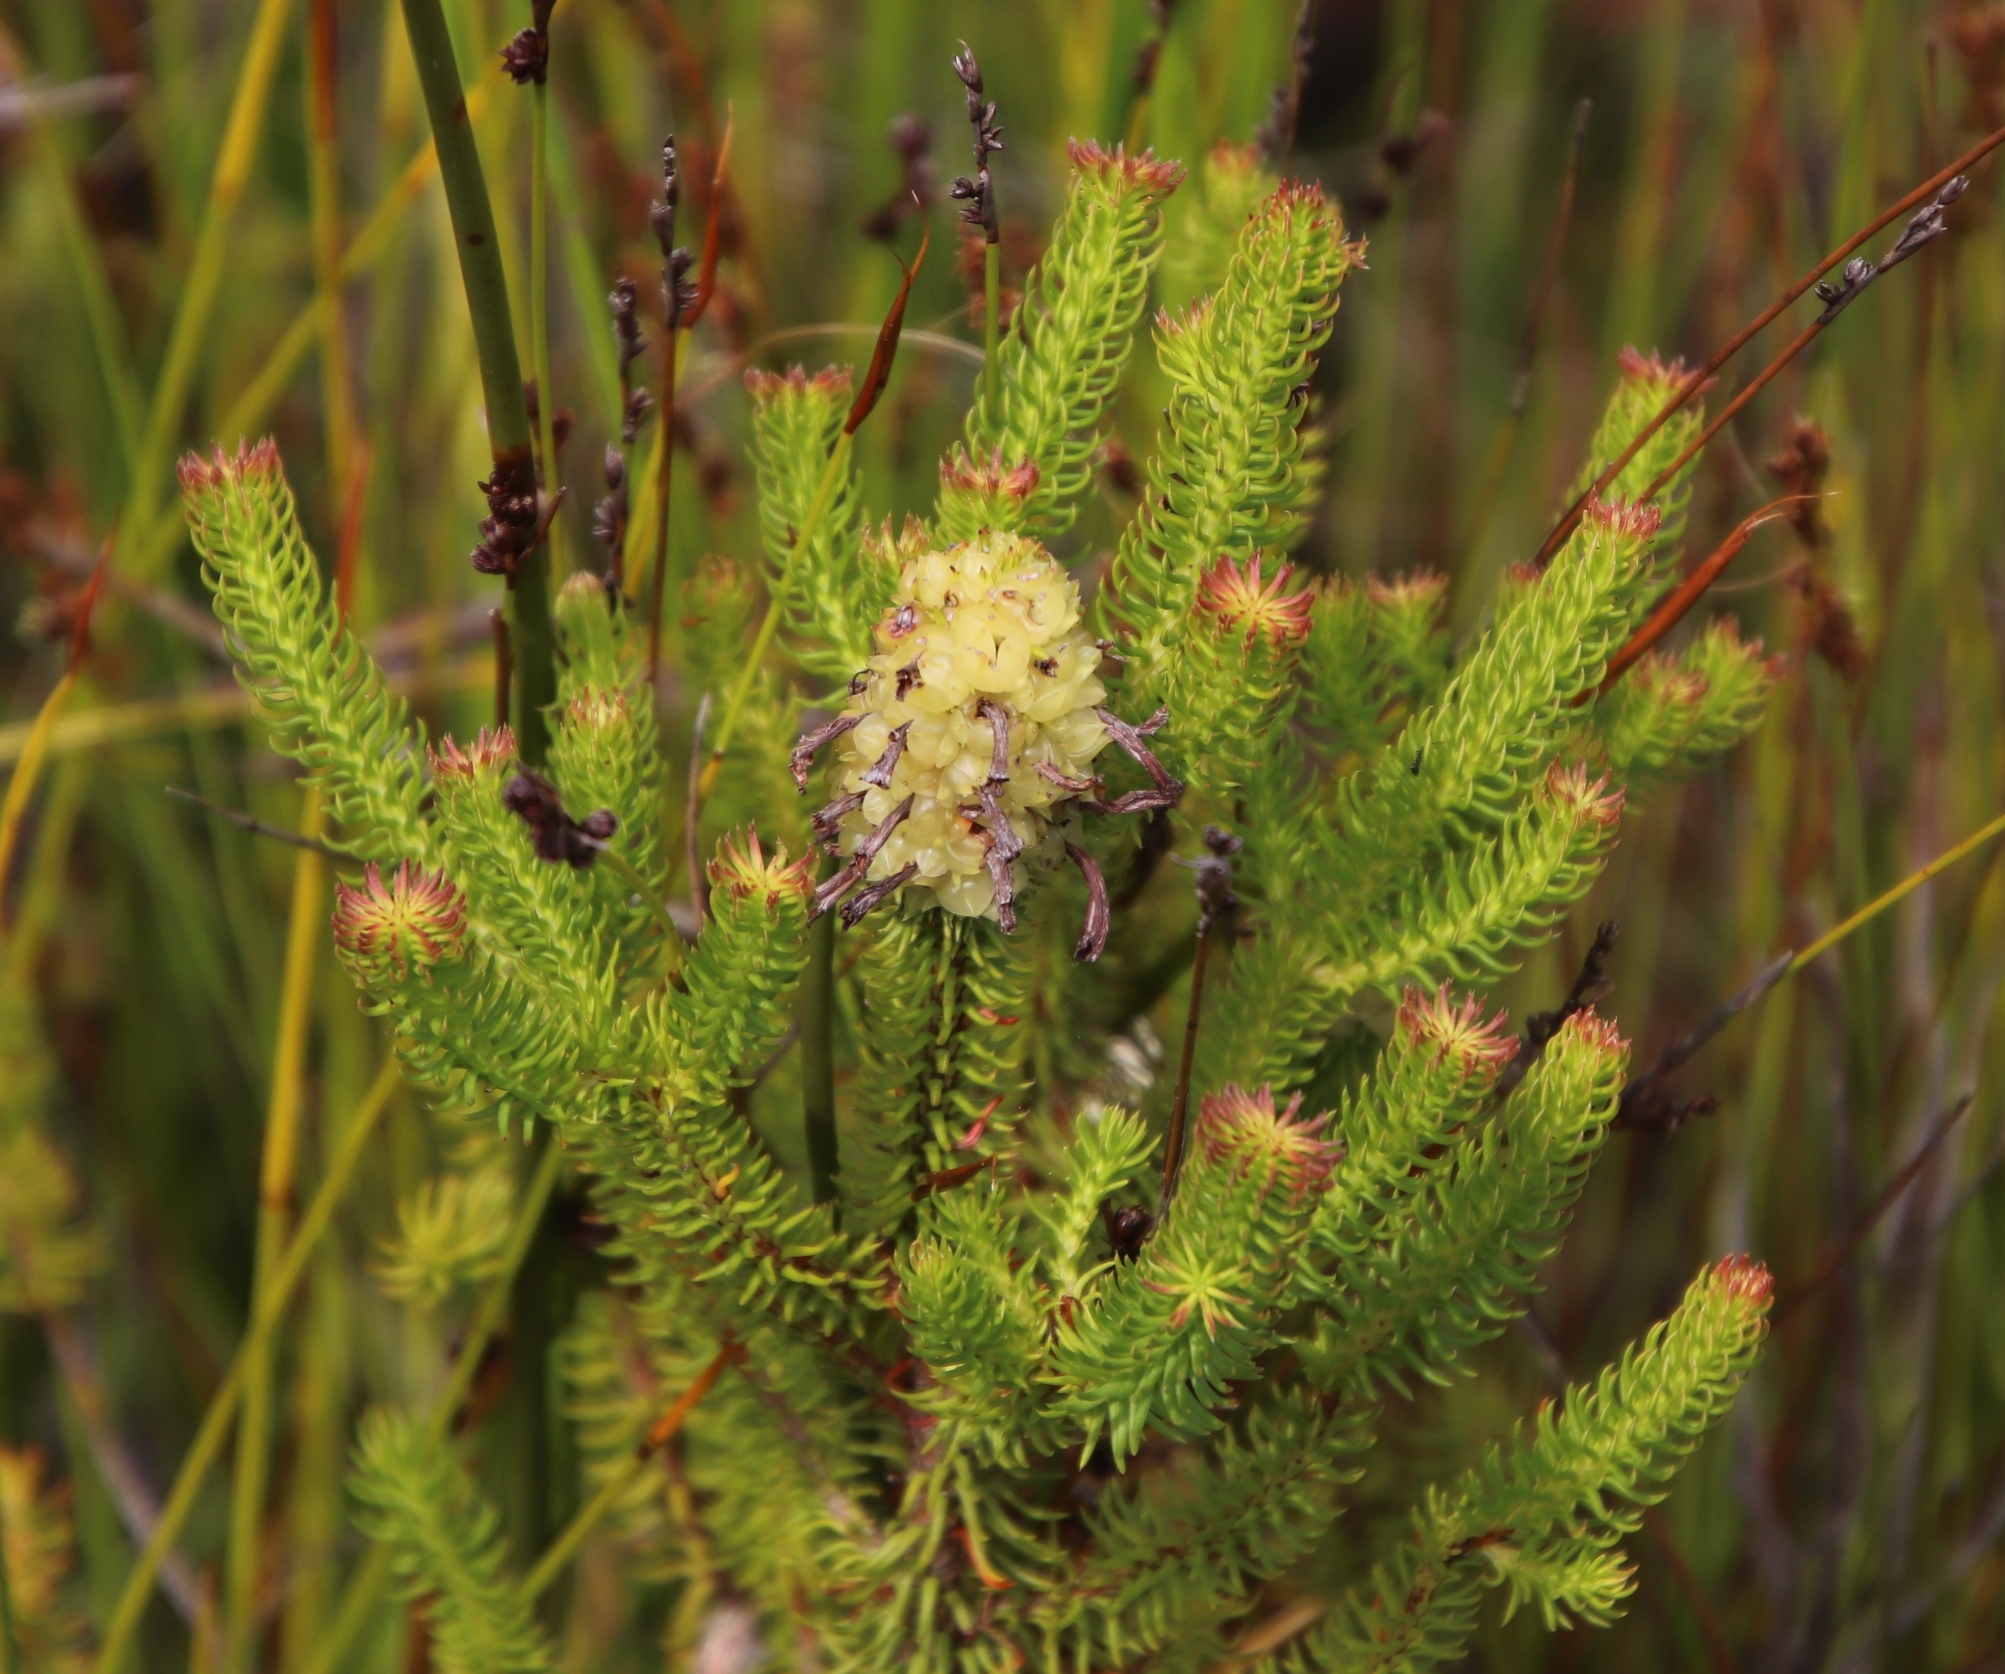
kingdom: Plantae
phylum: Tracheophyta
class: Magnoliopsida
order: Ericales
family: Ericaceae
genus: Erica
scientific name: Erica sessiliflora
